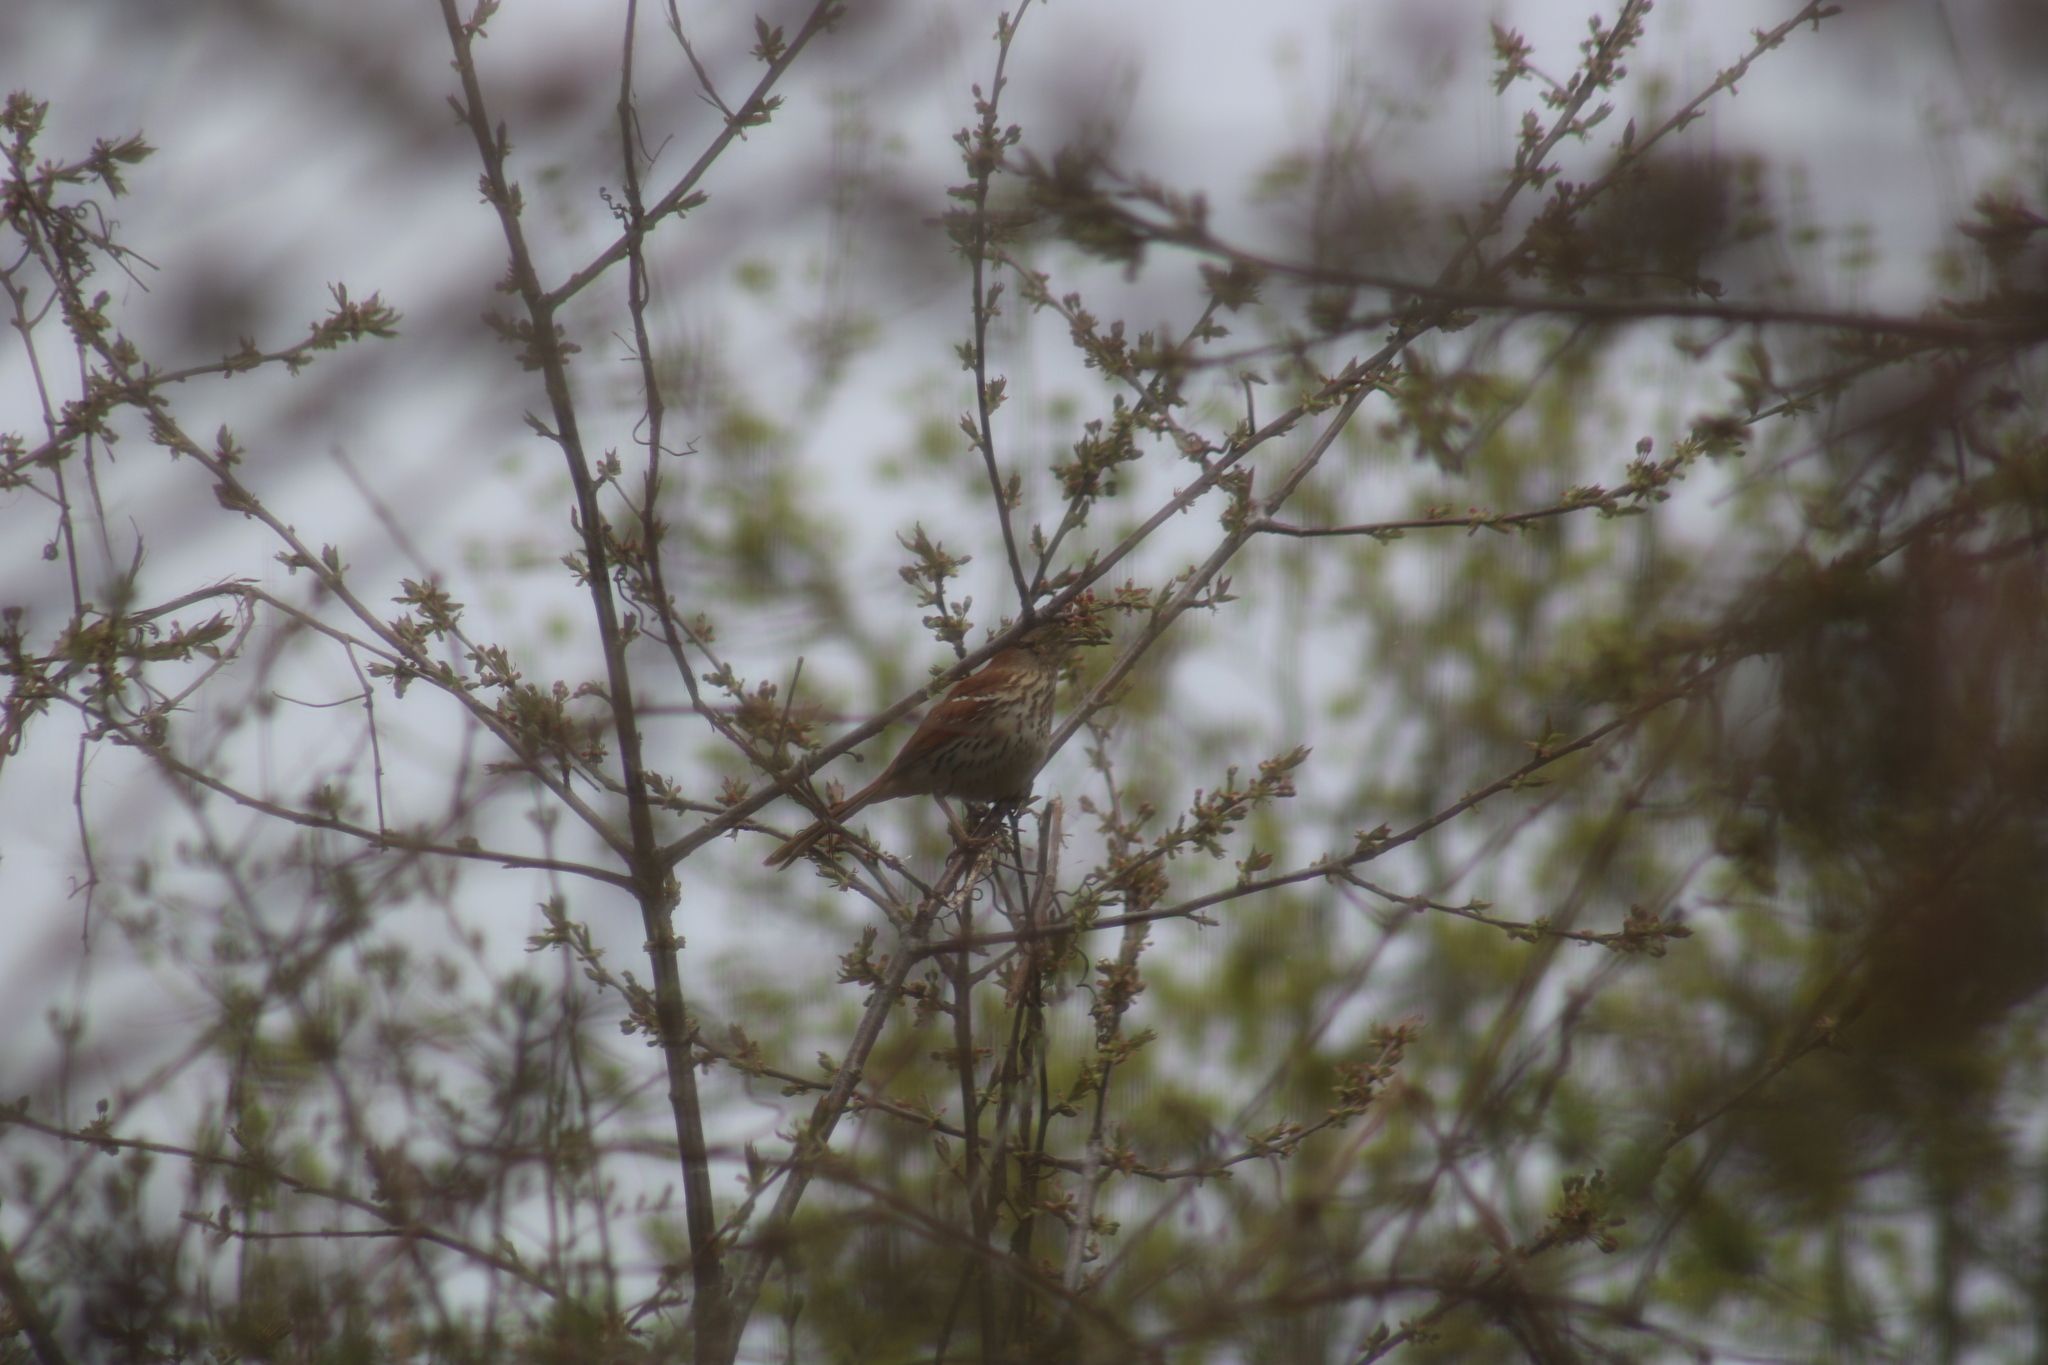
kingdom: Animalia
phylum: Chordata
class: Aves
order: Passeriformes
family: Mimidae
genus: Toxostoma
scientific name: Toxostoma rufum
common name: Brown thrasher
